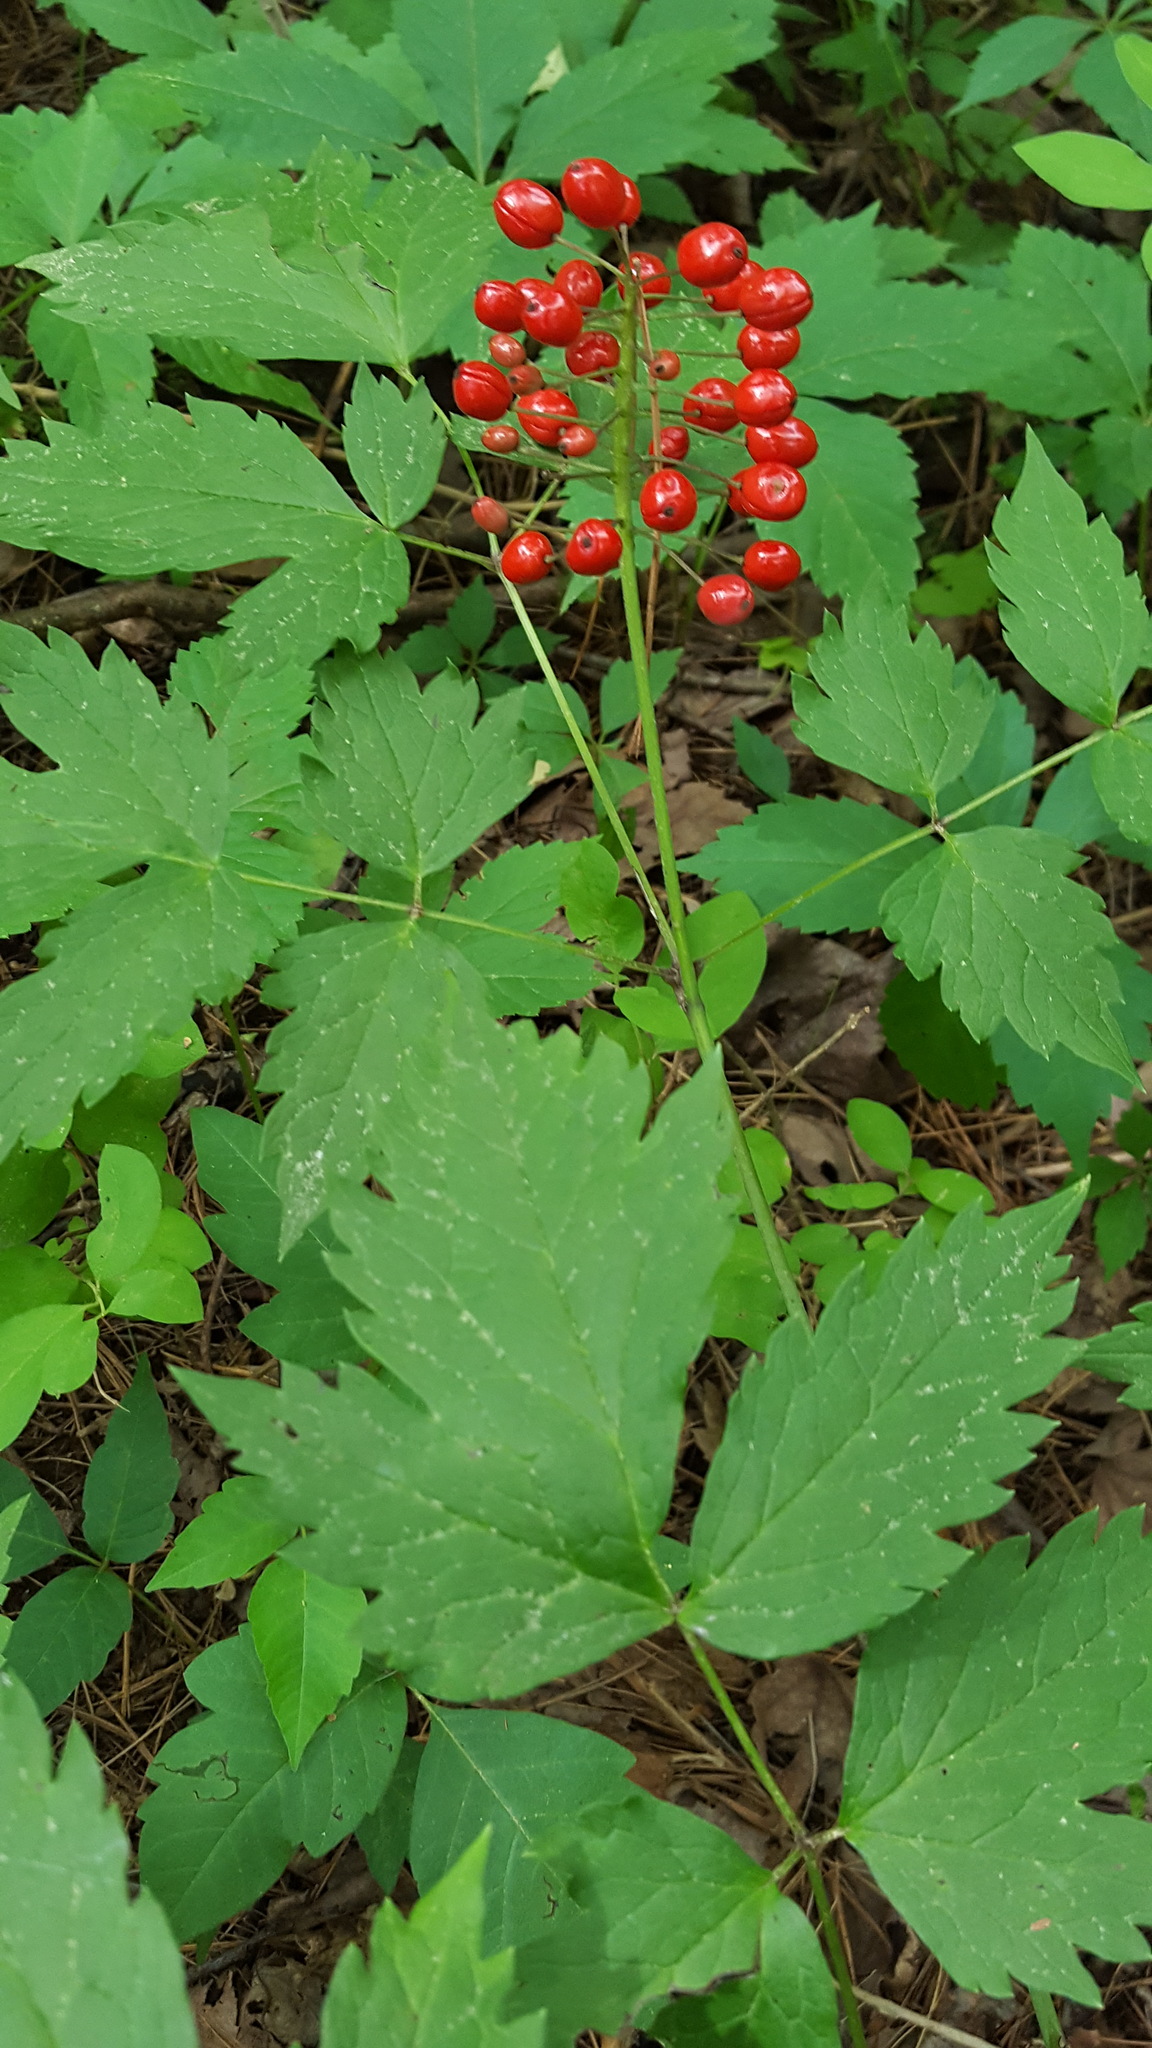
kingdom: Plantae
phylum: Tracheophyta
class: Magnoliopsida
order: Ranunculales
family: Ranunculaceae
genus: Actaea
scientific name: Actaea rubra
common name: Red baneberry
